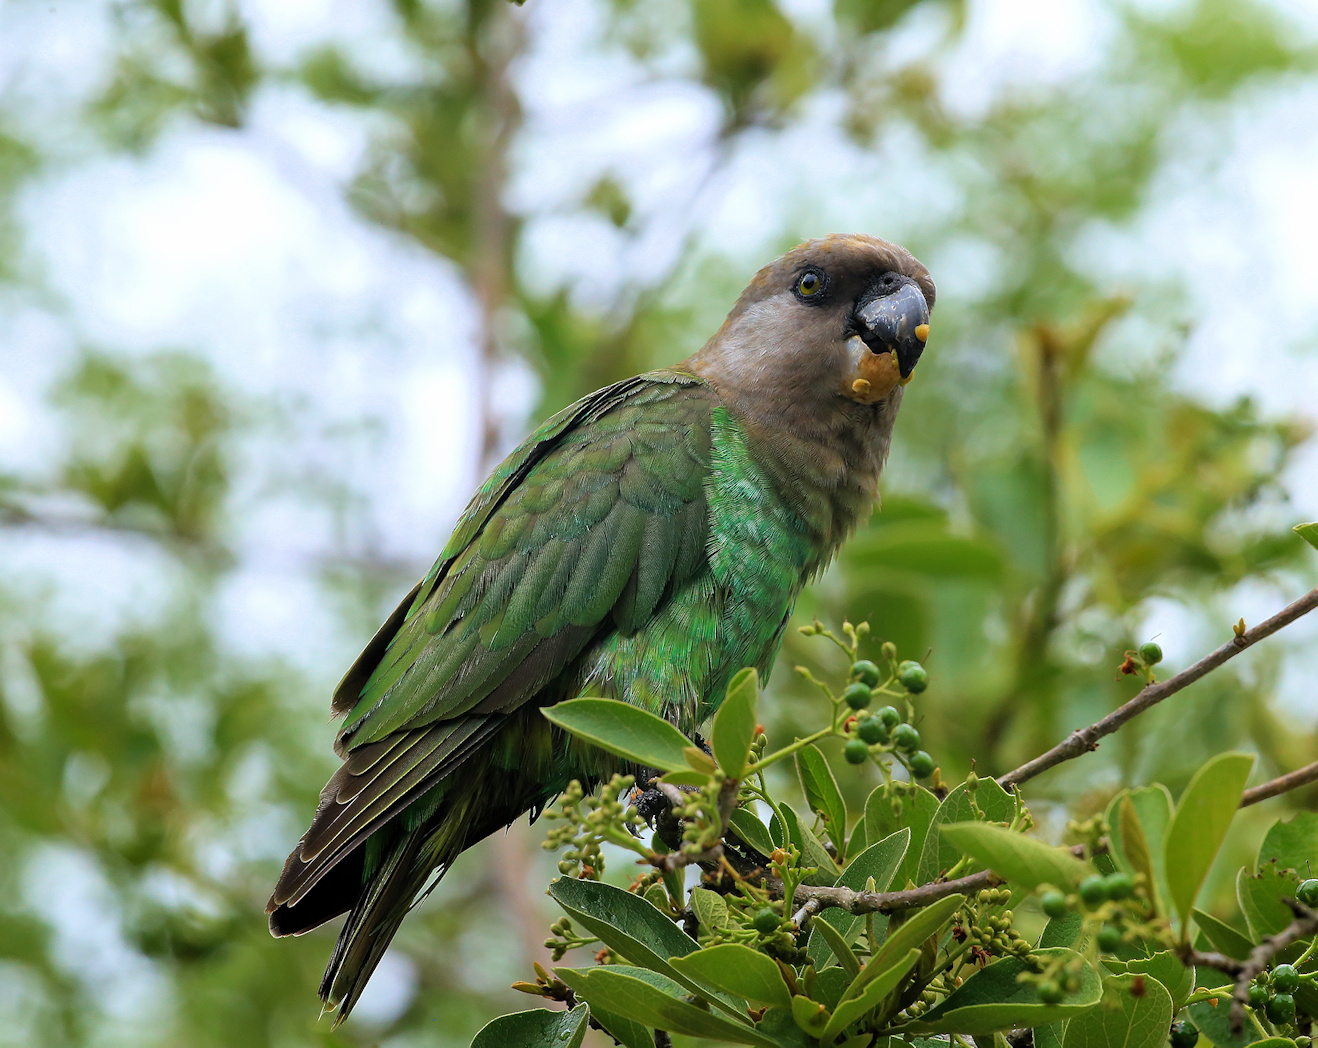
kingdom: Animalia
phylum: Chordata
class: Aves
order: Psittaciformes
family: Psittacidae
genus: Poicephalus
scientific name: Poicephalus cryptoxanthus
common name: Brown-headed parrot
